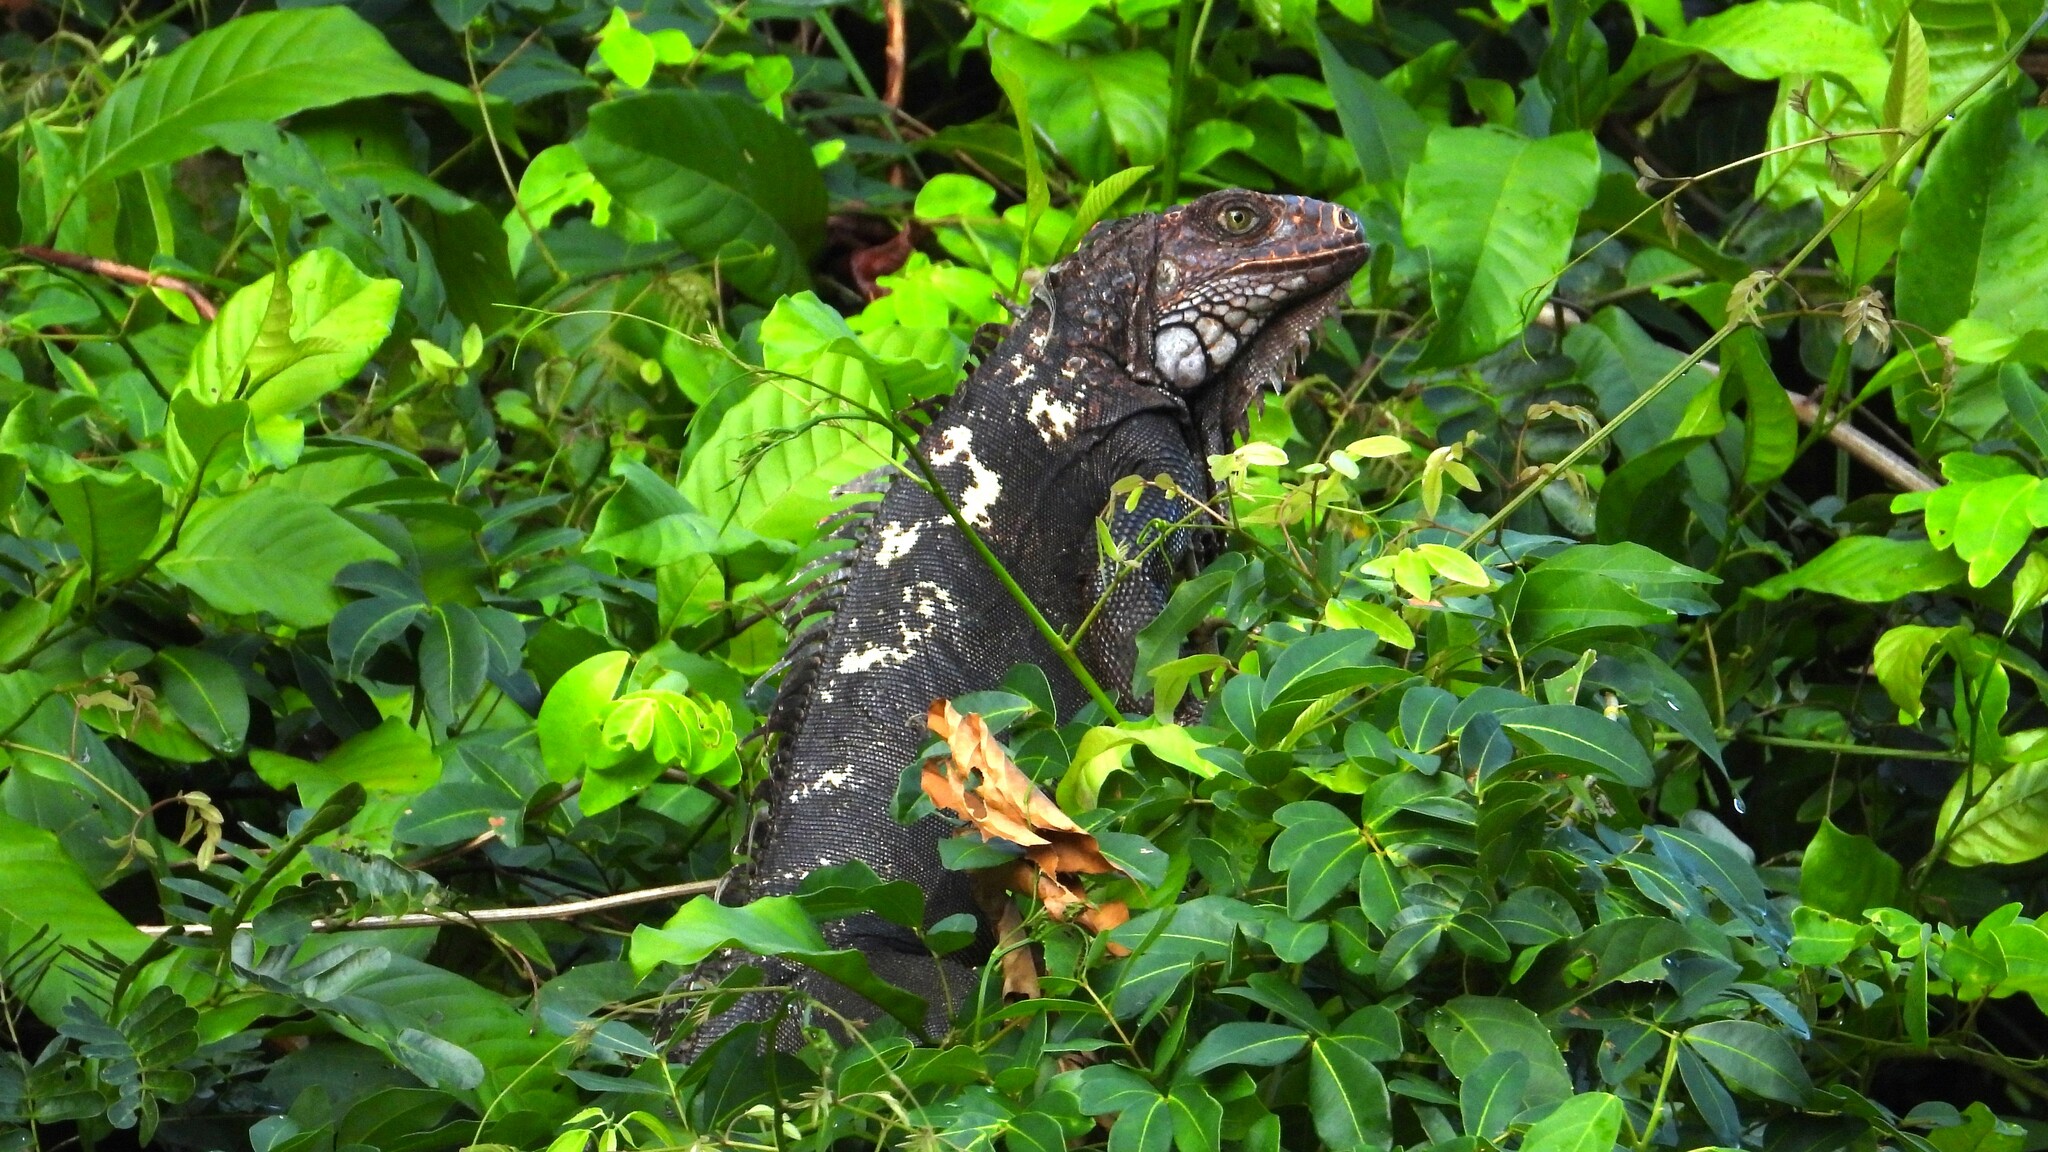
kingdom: Animalia
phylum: Chordata
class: Squamata
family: Iguanidae
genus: Iguana
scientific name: Iguana iguana
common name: Green iguana
